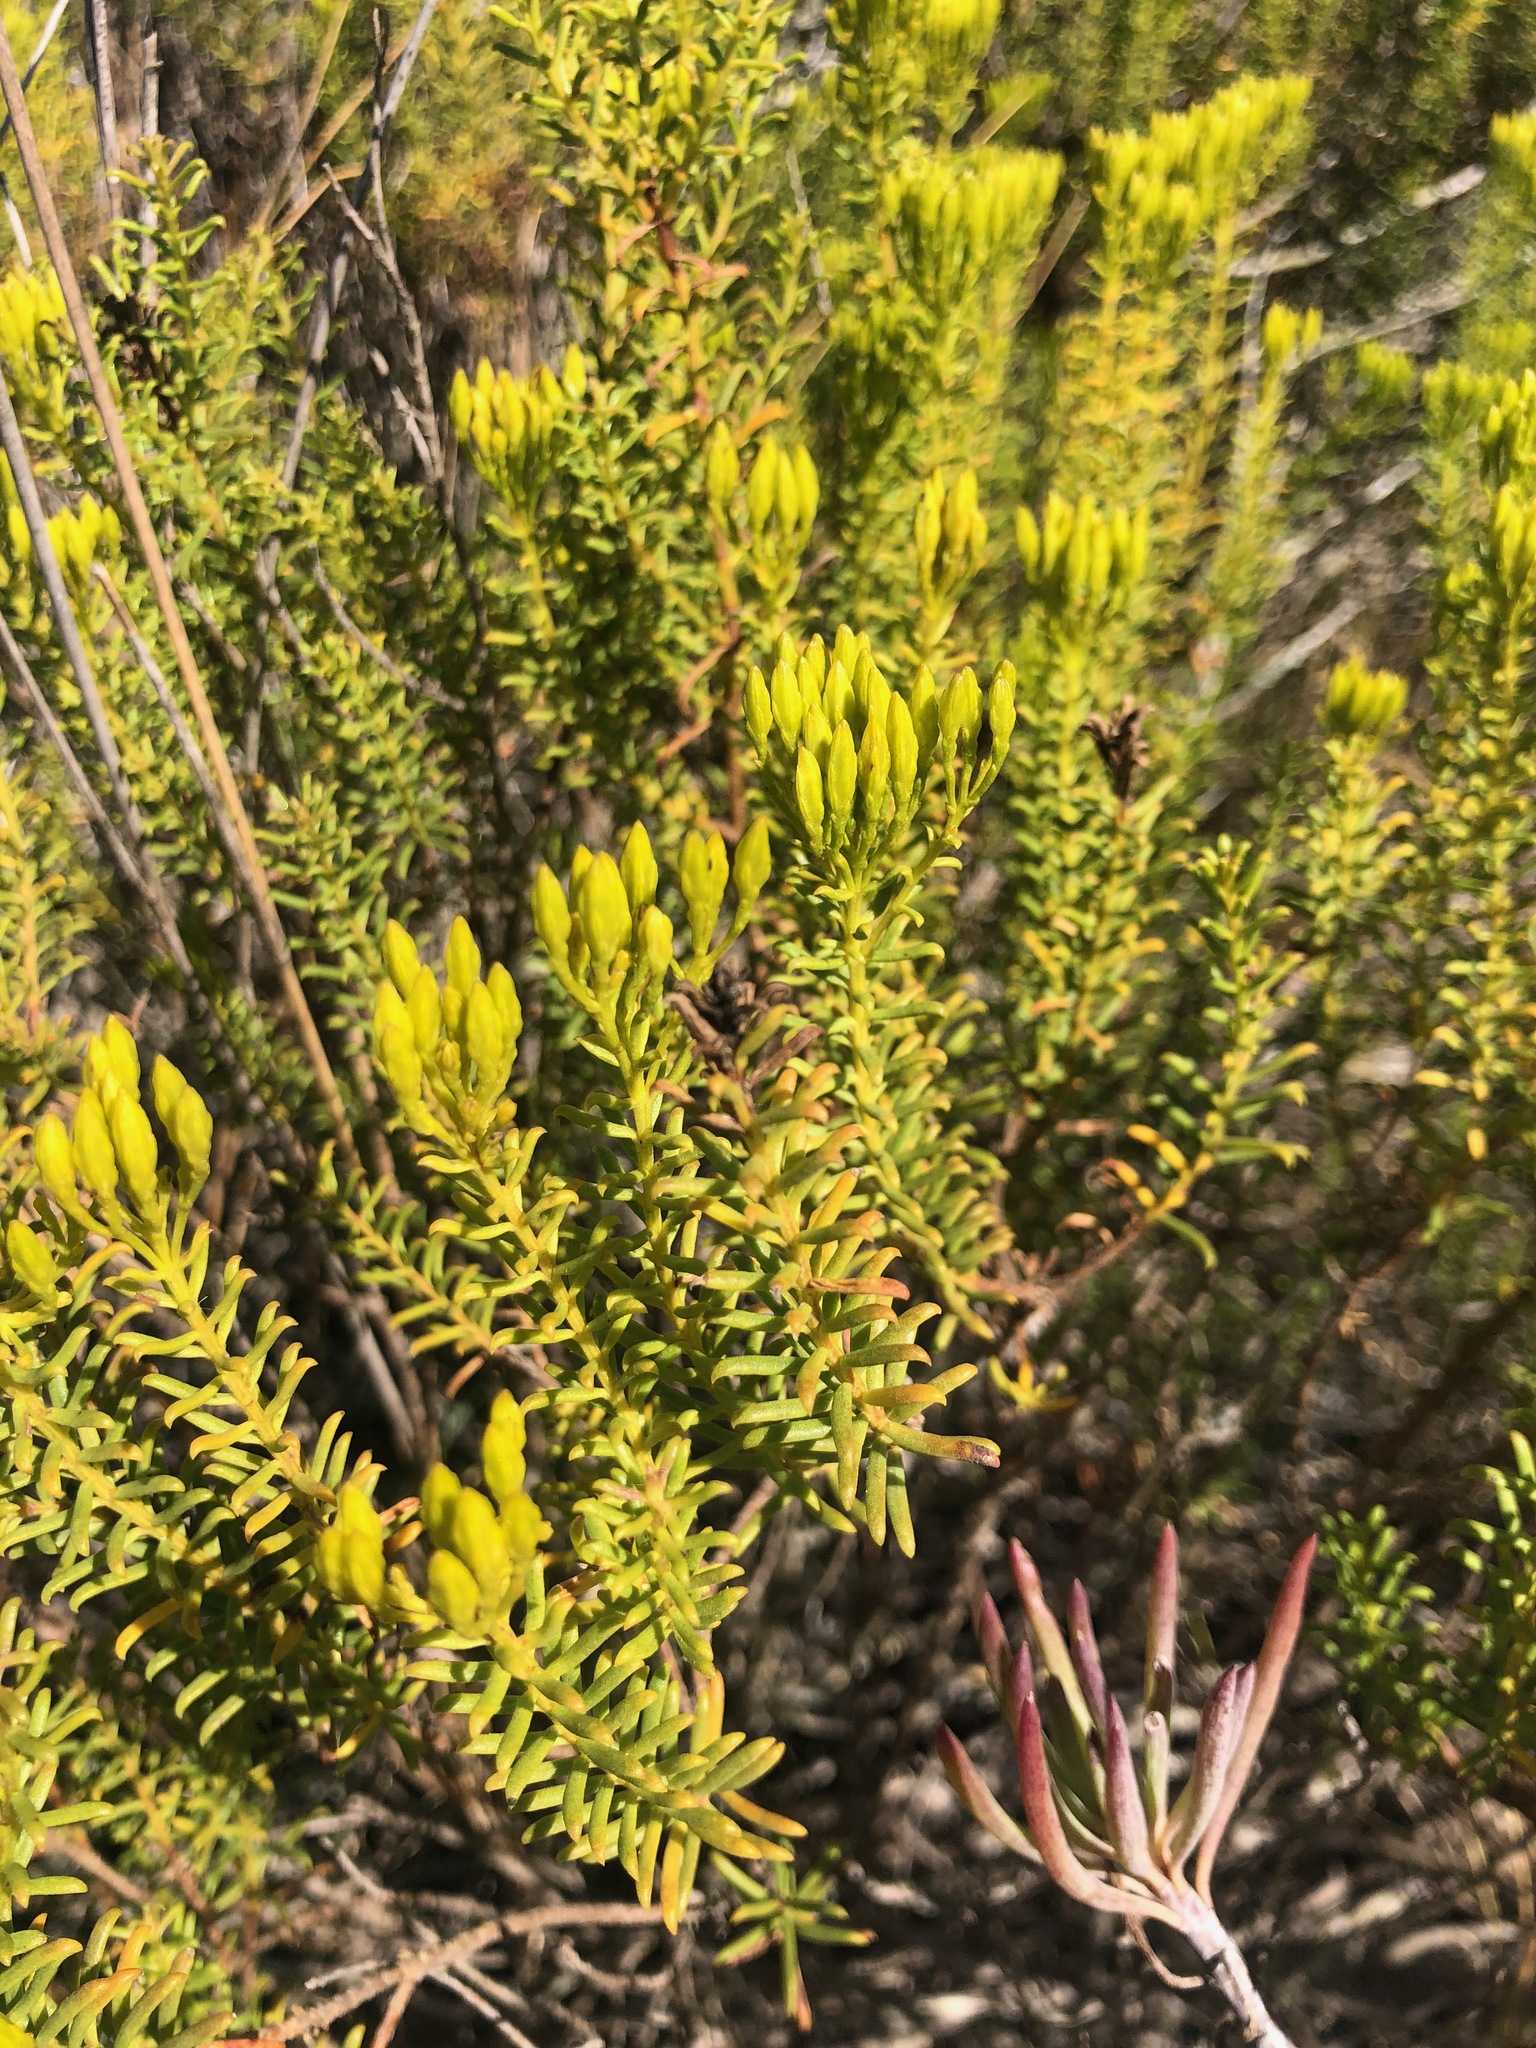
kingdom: Plantae
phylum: Tracheophyta
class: Magnoliopsida
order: Asterales
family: Asteraceae
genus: Pteronia
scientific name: Pteronia uncinata
